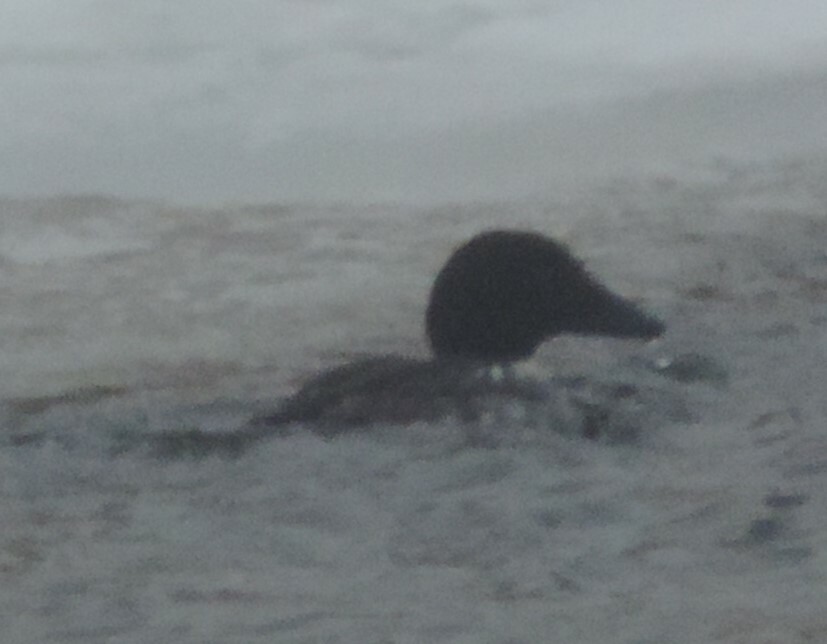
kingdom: Animalia
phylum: Chordata
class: Aves
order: Anseriformes
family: Anatidae
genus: Bucephala
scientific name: Bucephala clangula
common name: Common goldeneye
